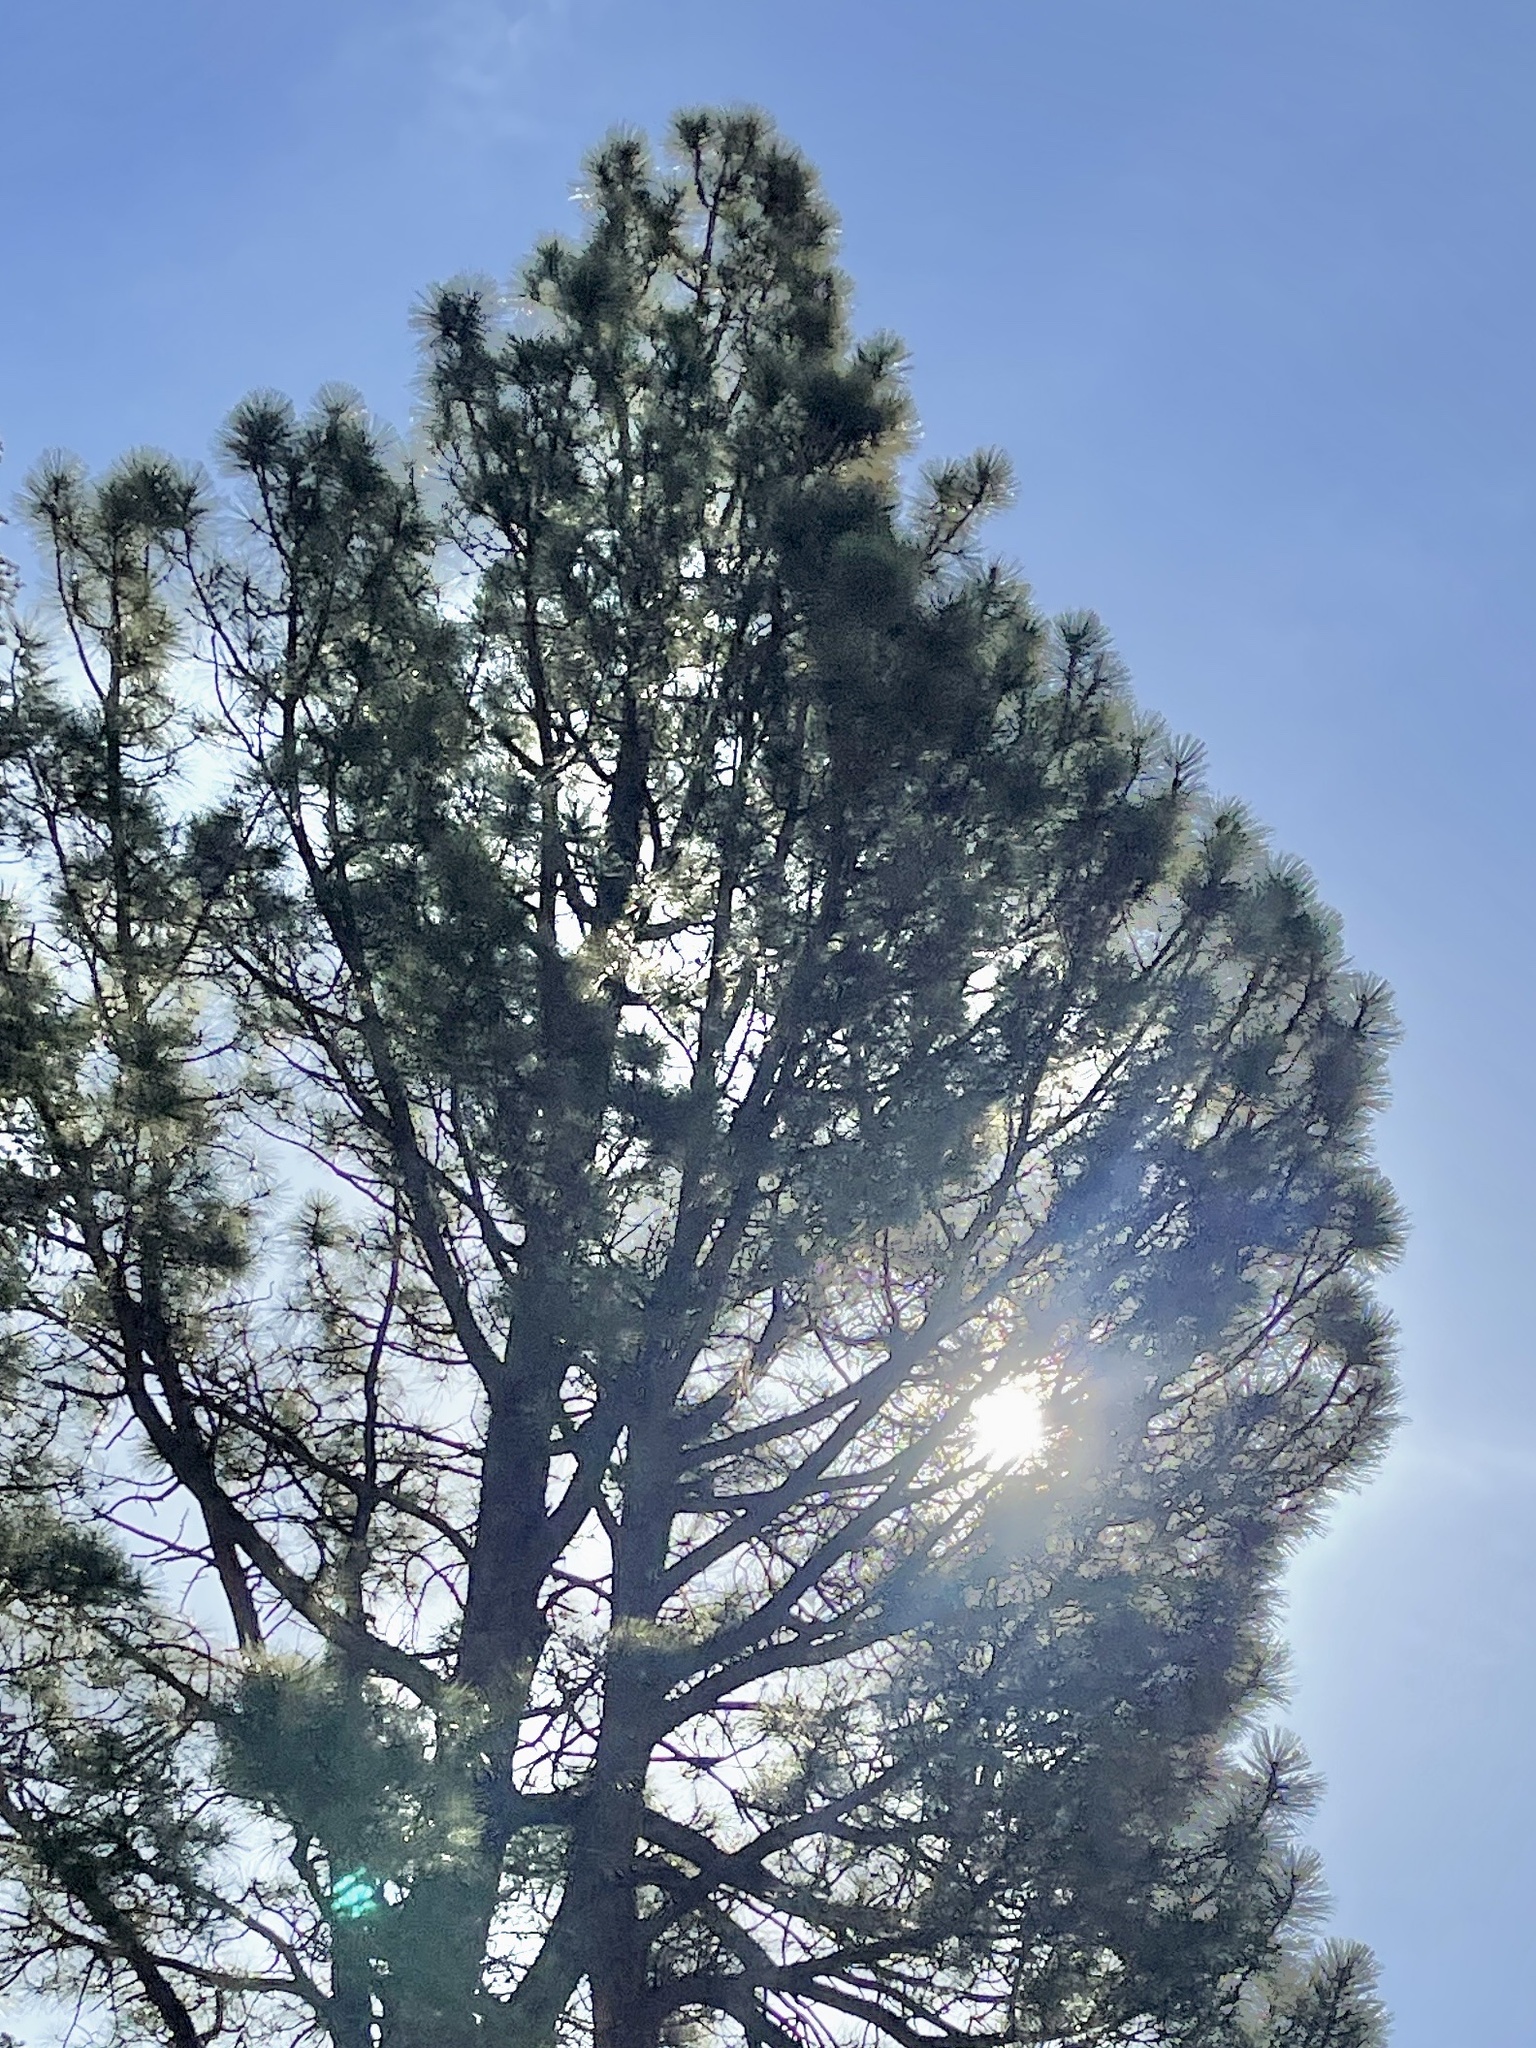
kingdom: Plantae
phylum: Tracheophyta
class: Pinopsida
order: Pinales
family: Pinaceae
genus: Pinus
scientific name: Pinus ponderosa
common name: Western yellow-pine
